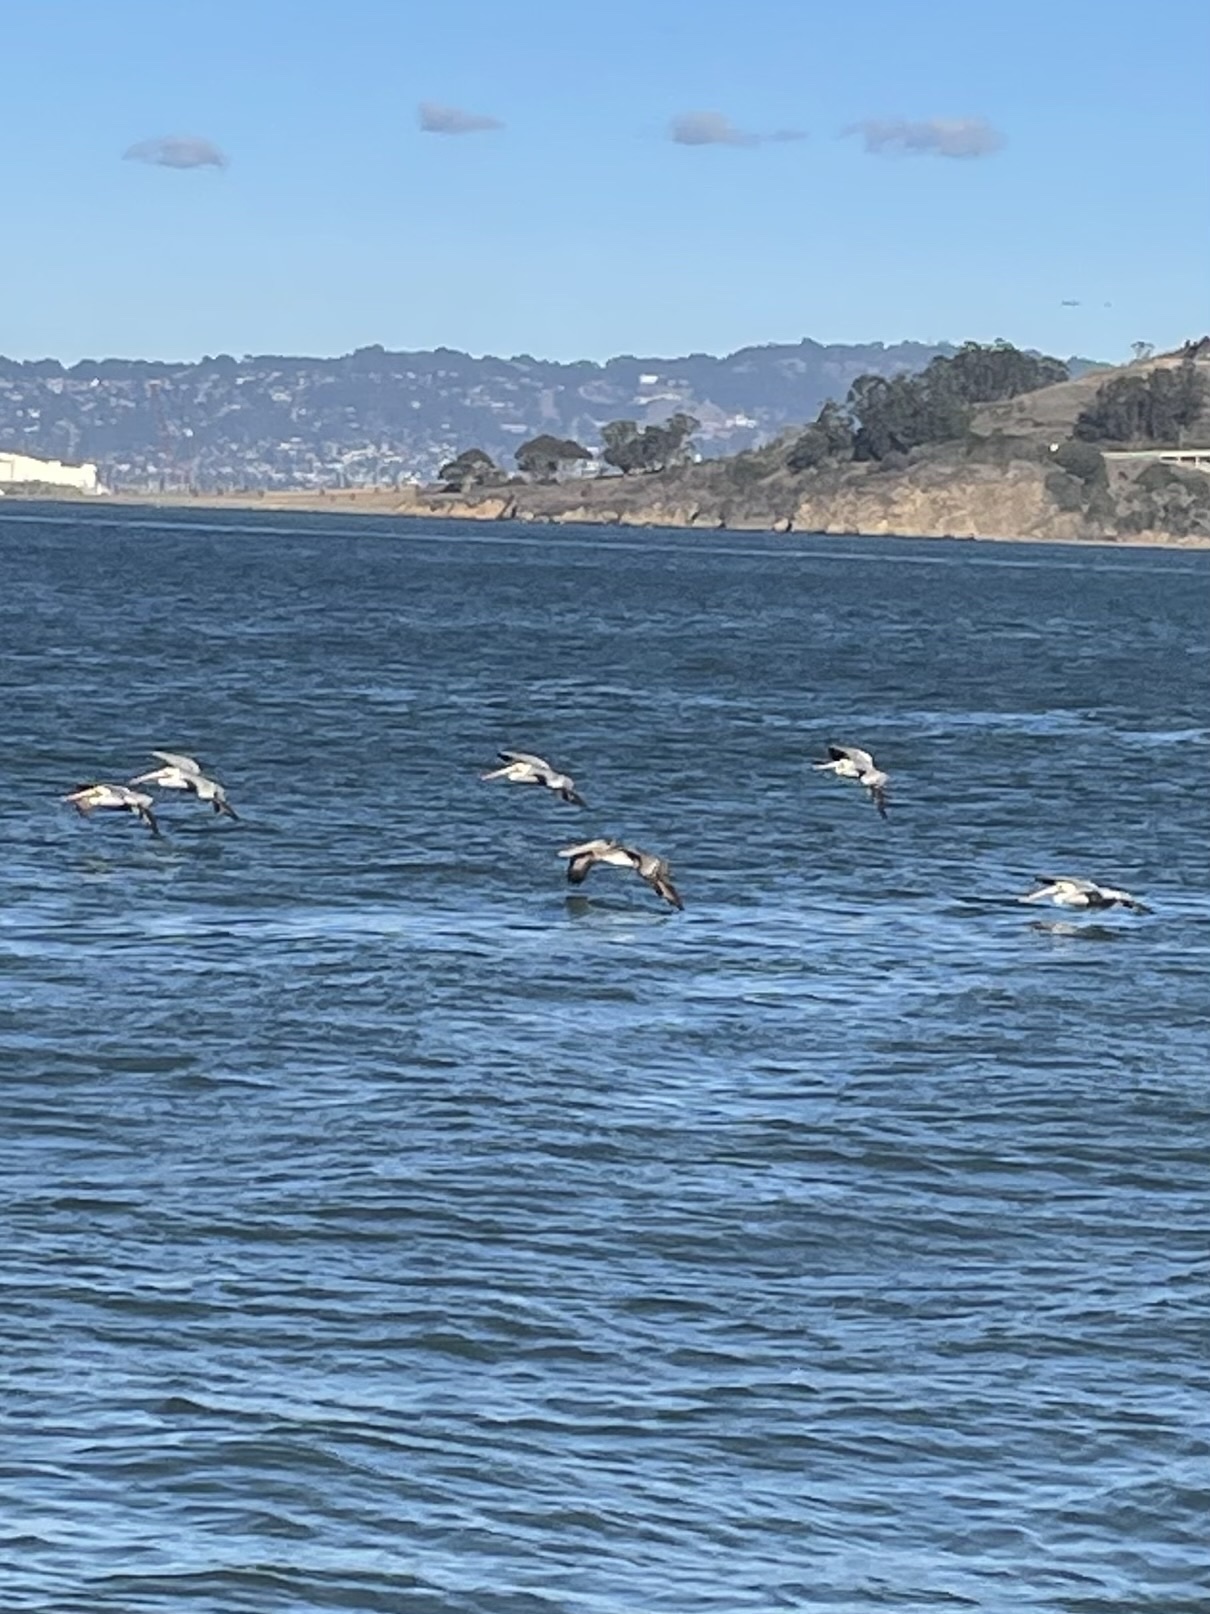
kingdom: Animalia
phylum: Chordata
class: Aves
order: Pelecaniformes
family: Pelecanidae
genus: Pelecanus
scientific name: Pelecanus occidentalis
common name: Brown pelican
